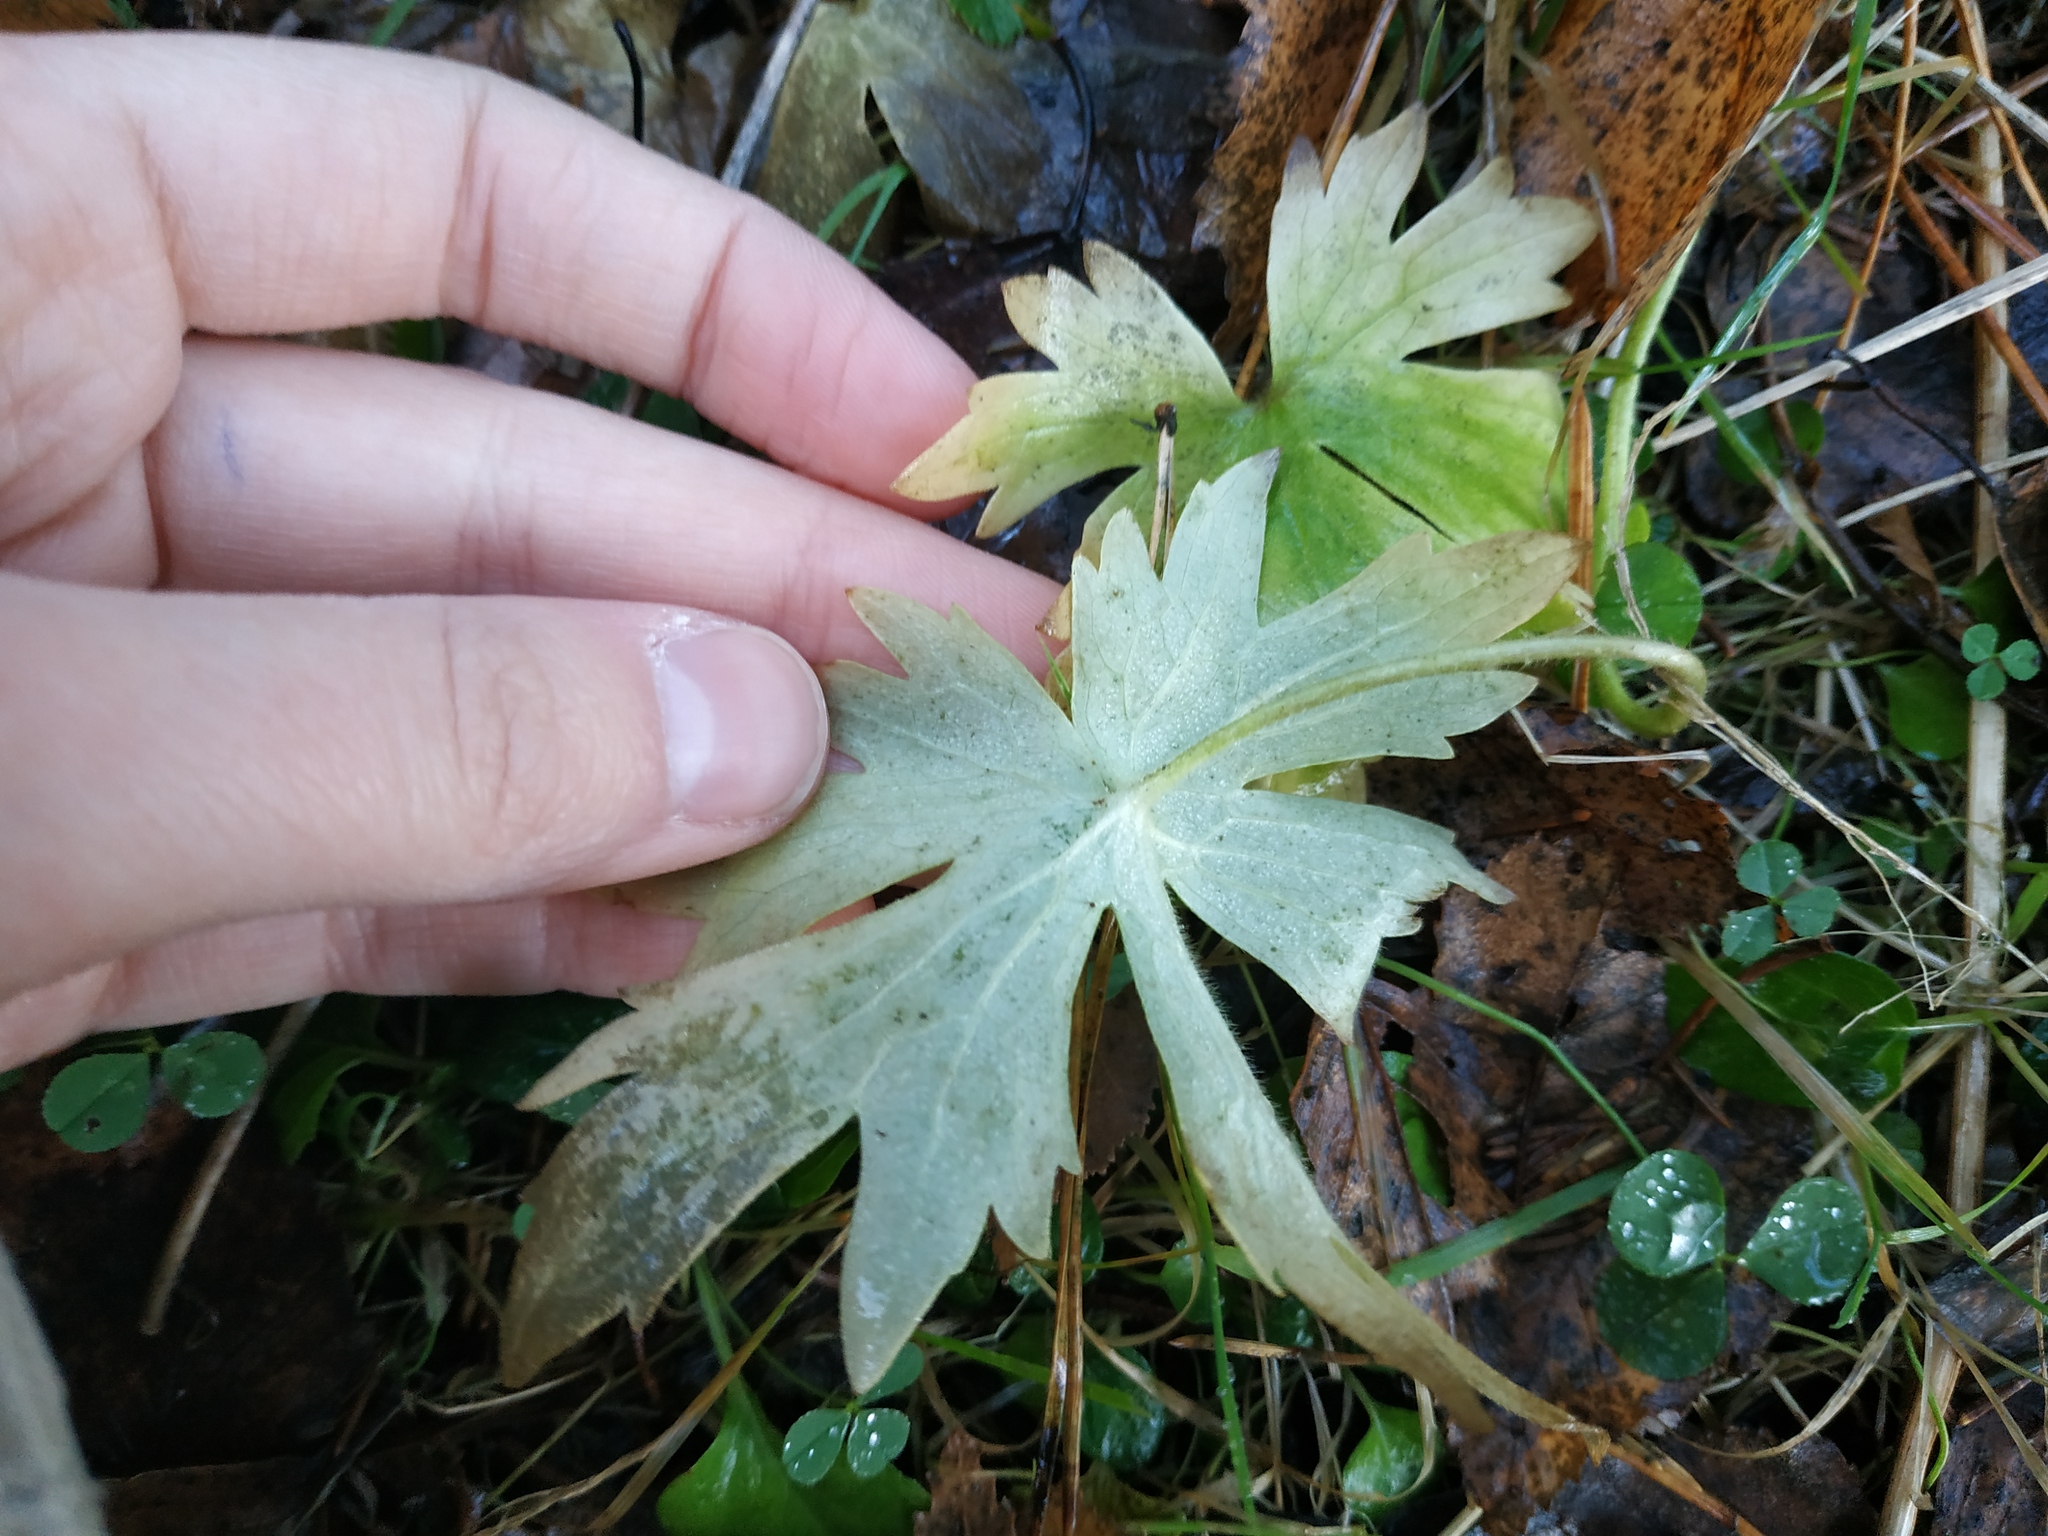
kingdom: Plantae
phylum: Tracheophyta
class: Magnoliopsida
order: Ranunculales
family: Ranunculaceae
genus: Ranunculus
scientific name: Ranunculus
